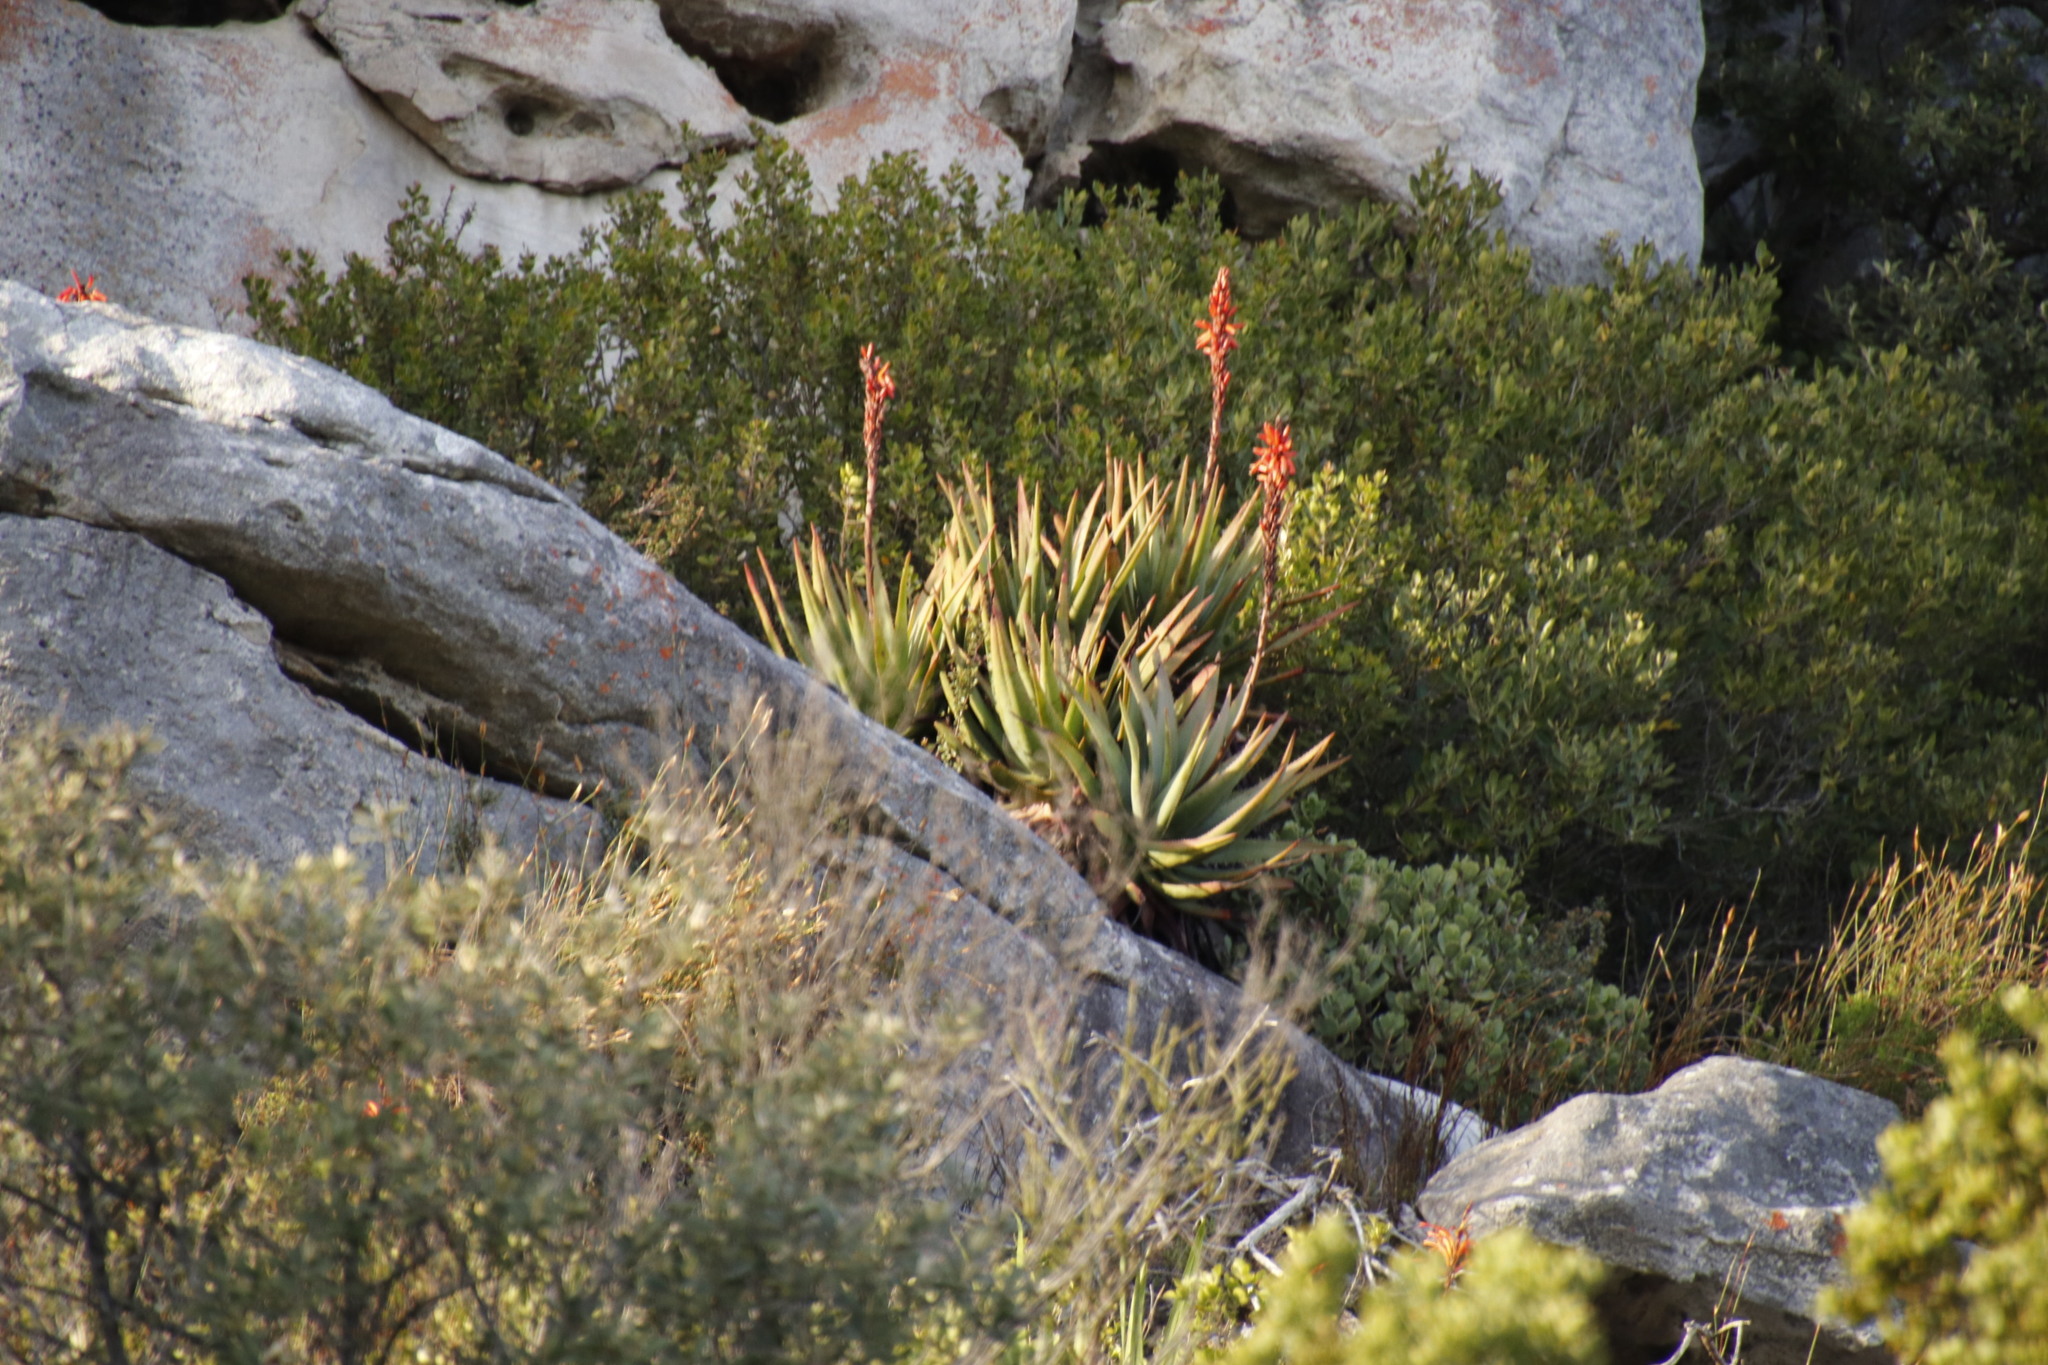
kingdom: Plantae
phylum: Tracheophyta
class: Liliopsida
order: Asparagales
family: Asphodelaceae
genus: Aloe
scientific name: Aloe succotrina
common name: Bombay aloe
